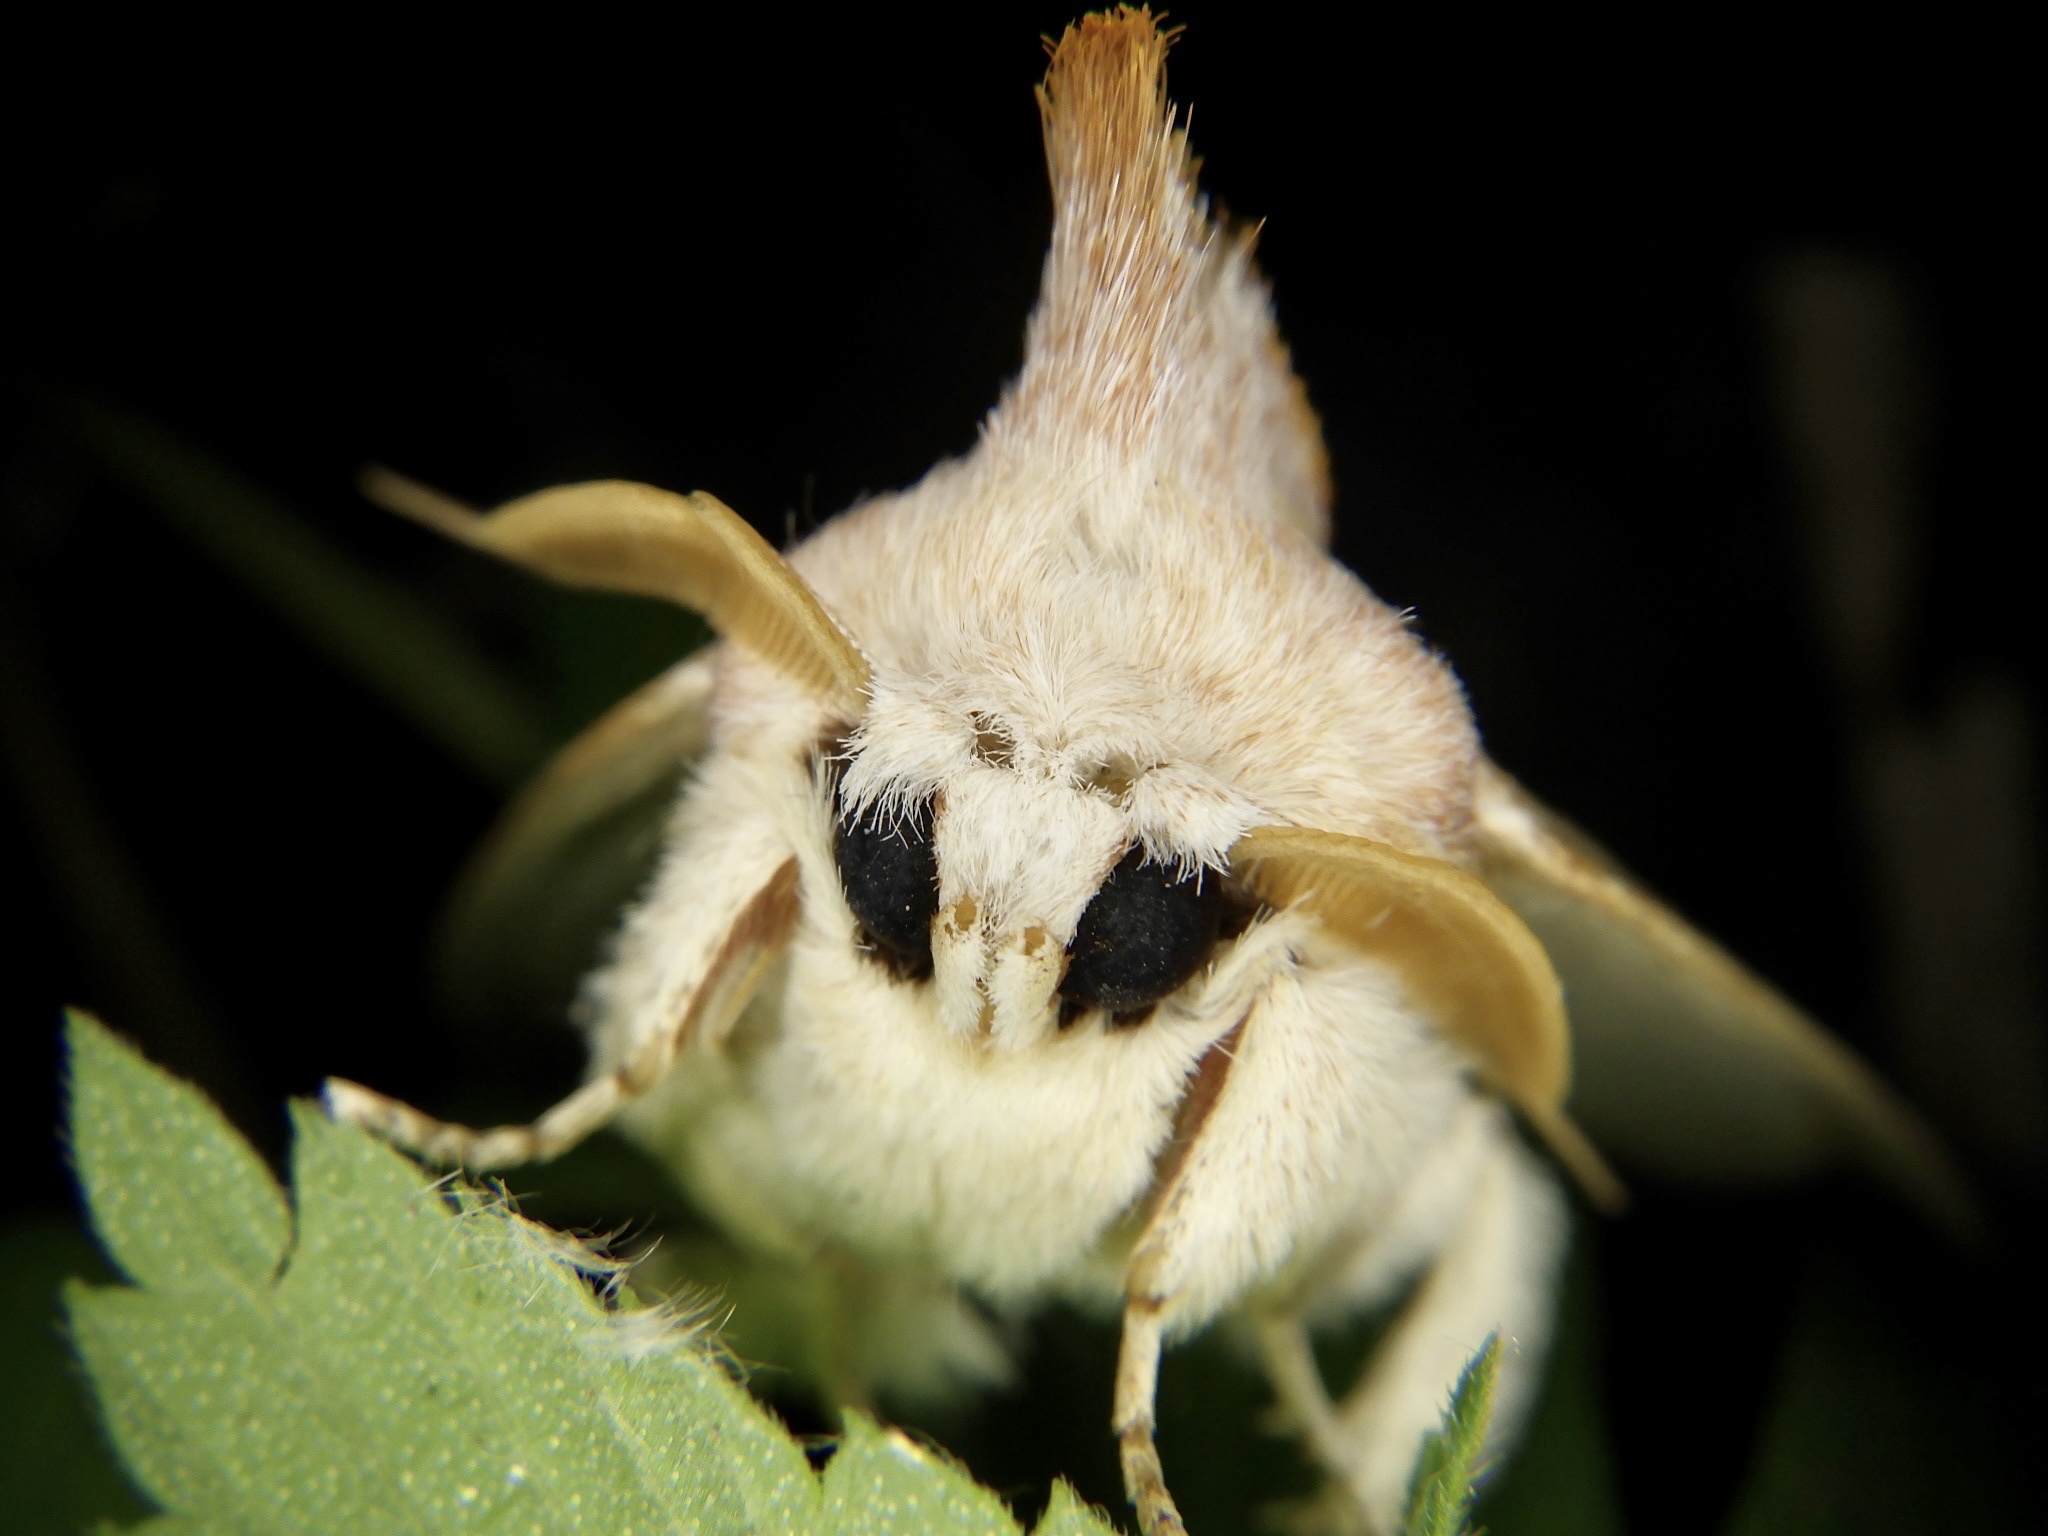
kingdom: Animalia
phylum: Arthropoda
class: Insecta
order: Lepidoptera
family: Notodontidae
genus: Euhampsonia
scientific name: Euhampsonia cristata
